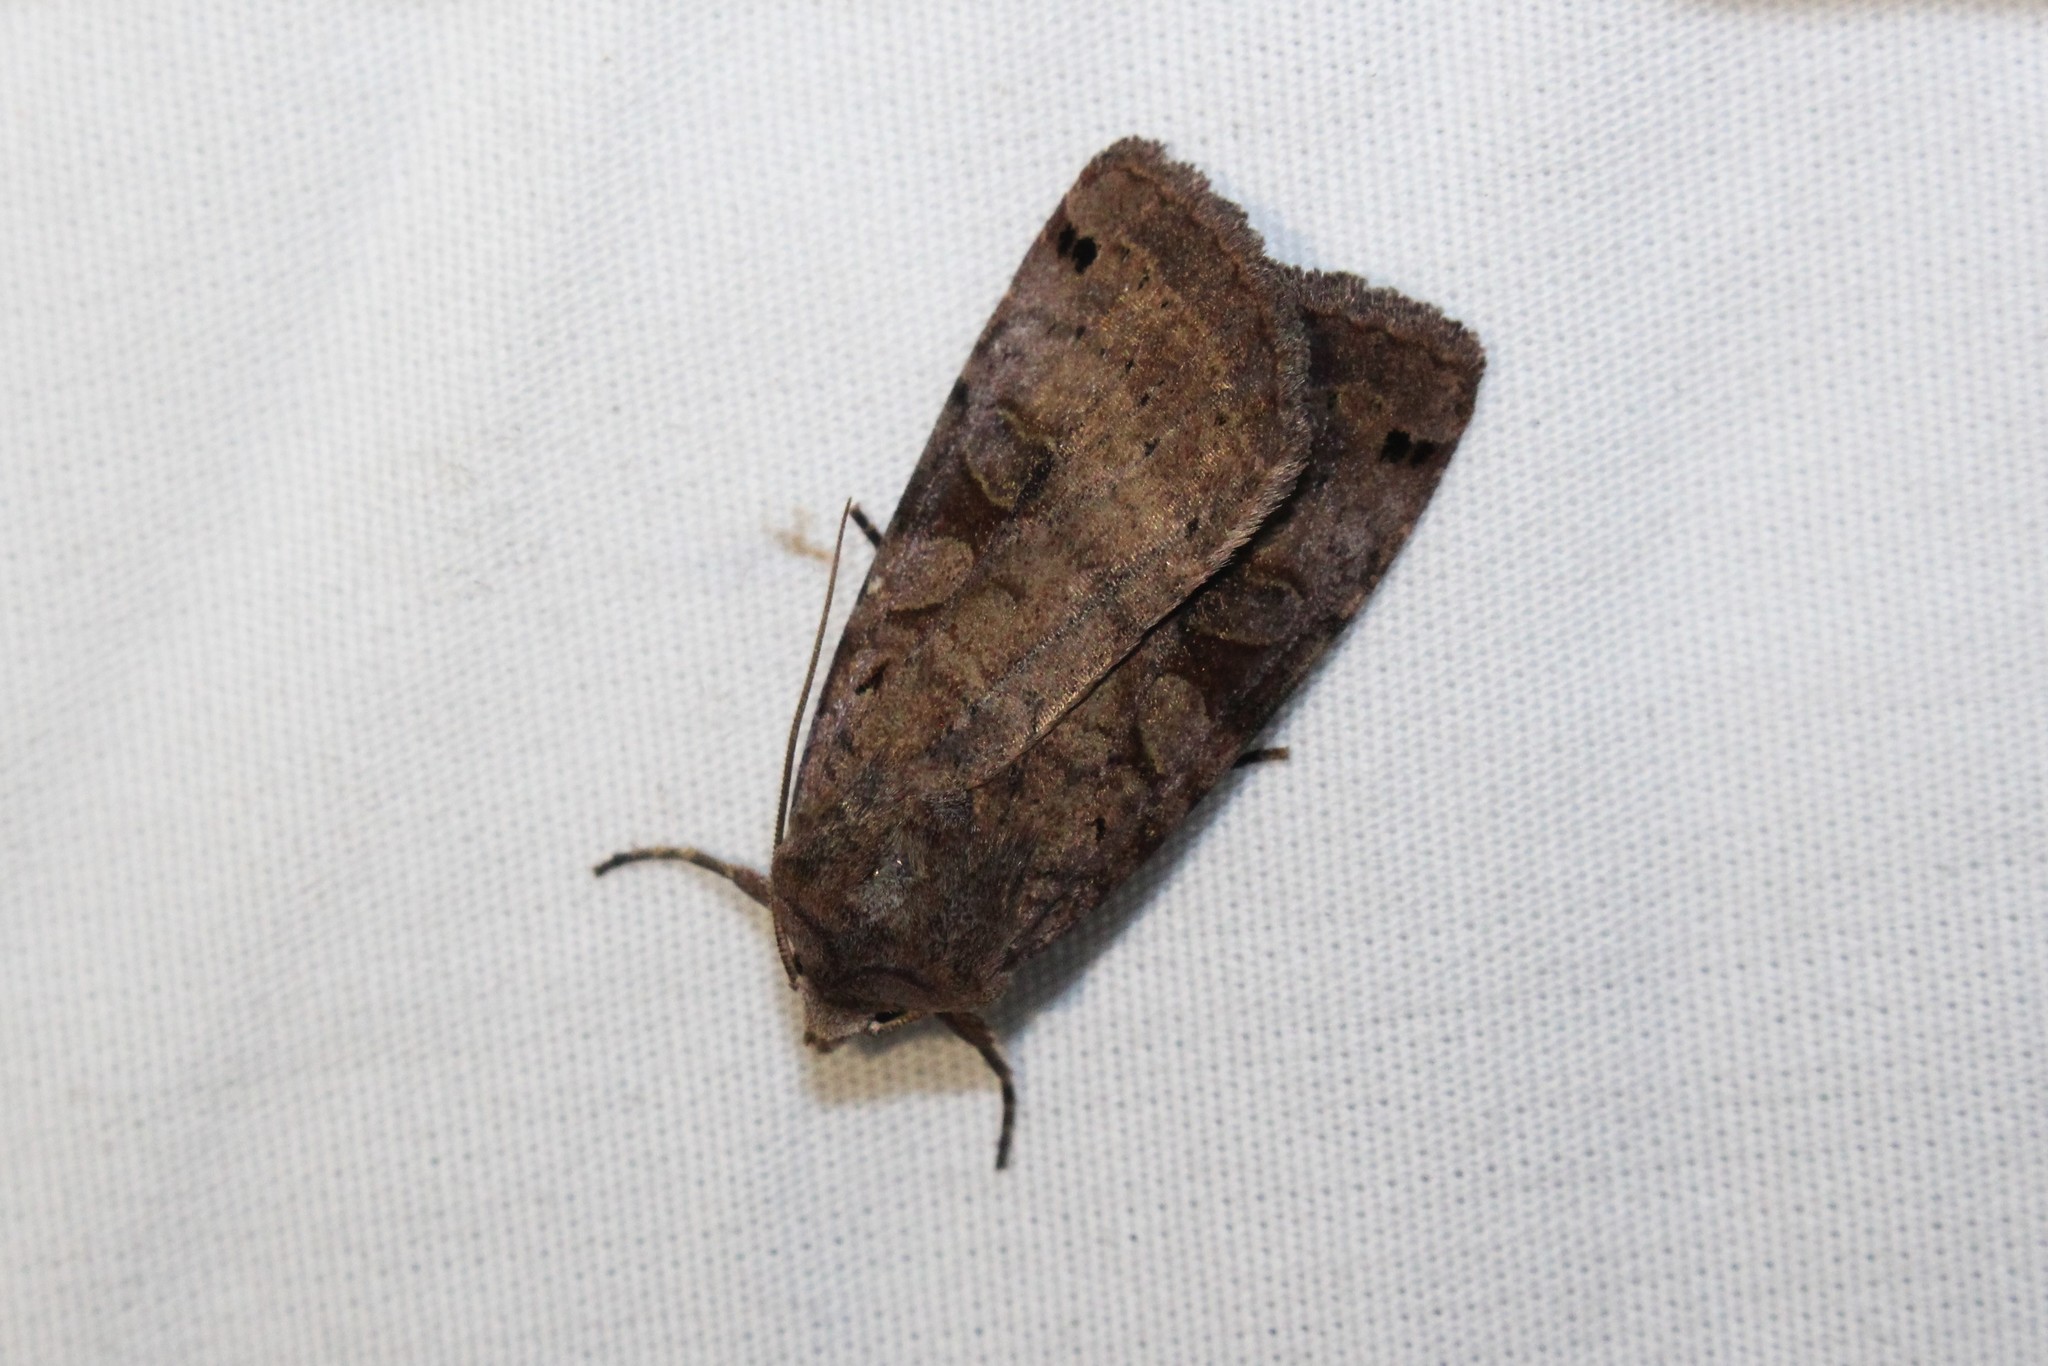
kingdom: Animalia
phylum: Arthropoda
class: Insecta
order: Lepidoptera
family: Noctuidae
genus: Xestia
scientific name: Xestia smithii
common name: Smith's dart
